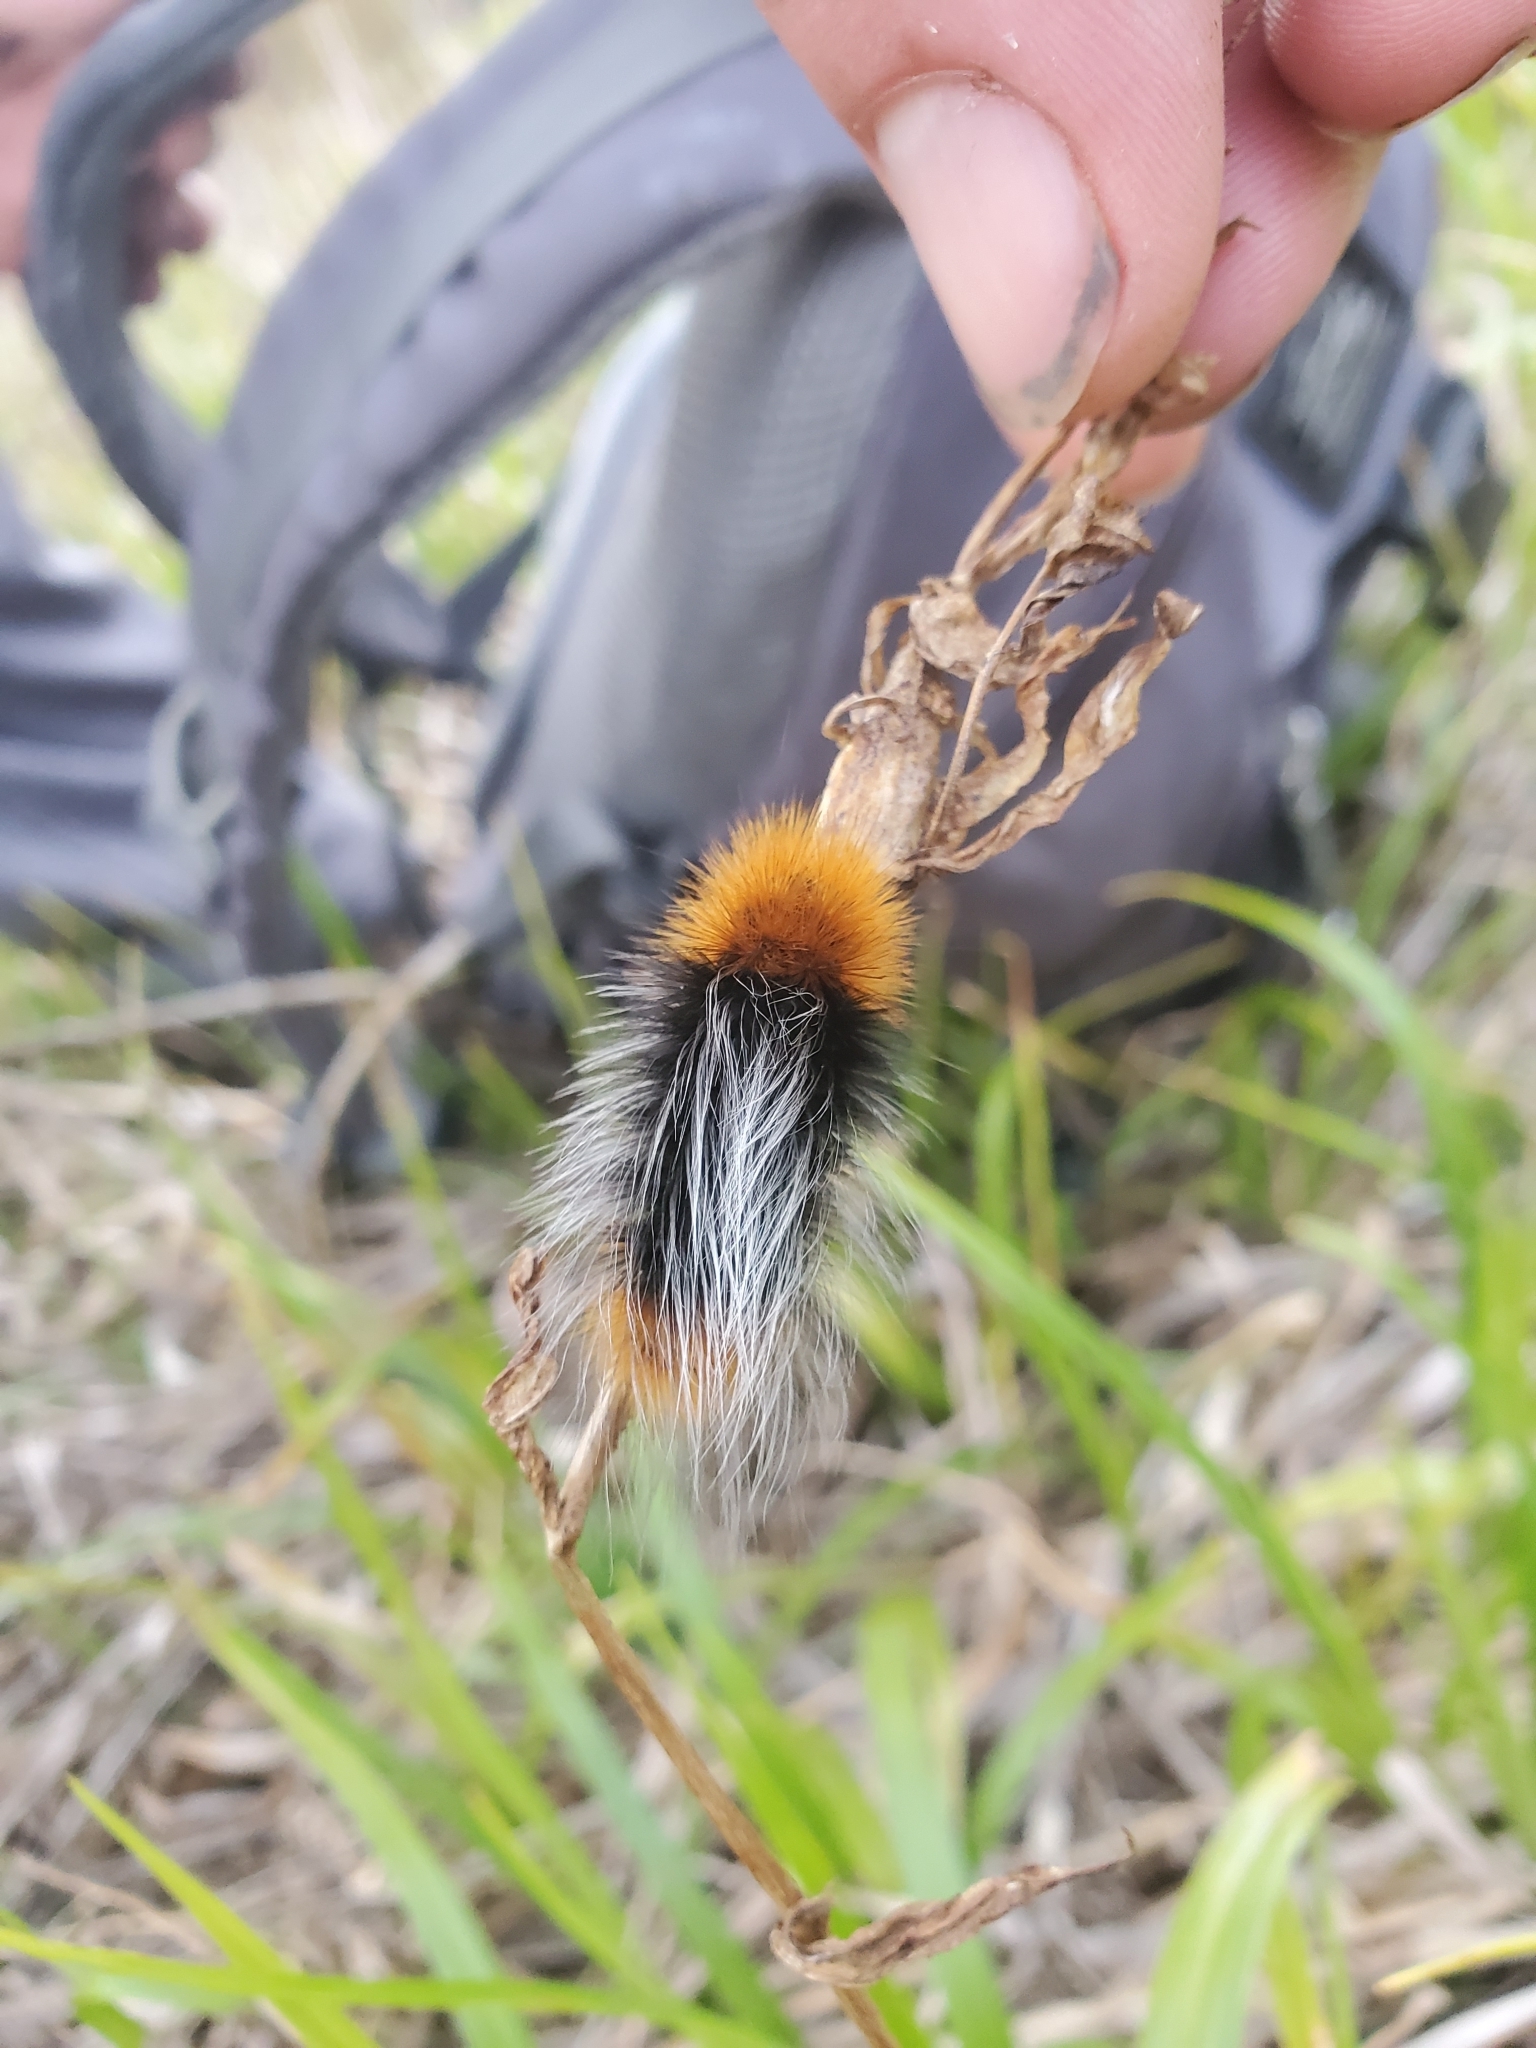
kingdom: Animalia
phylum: Arthropoda
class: Insecta
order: Lepidoptera
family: Erebidae
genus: Arctia
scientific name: Arctia tigrina
